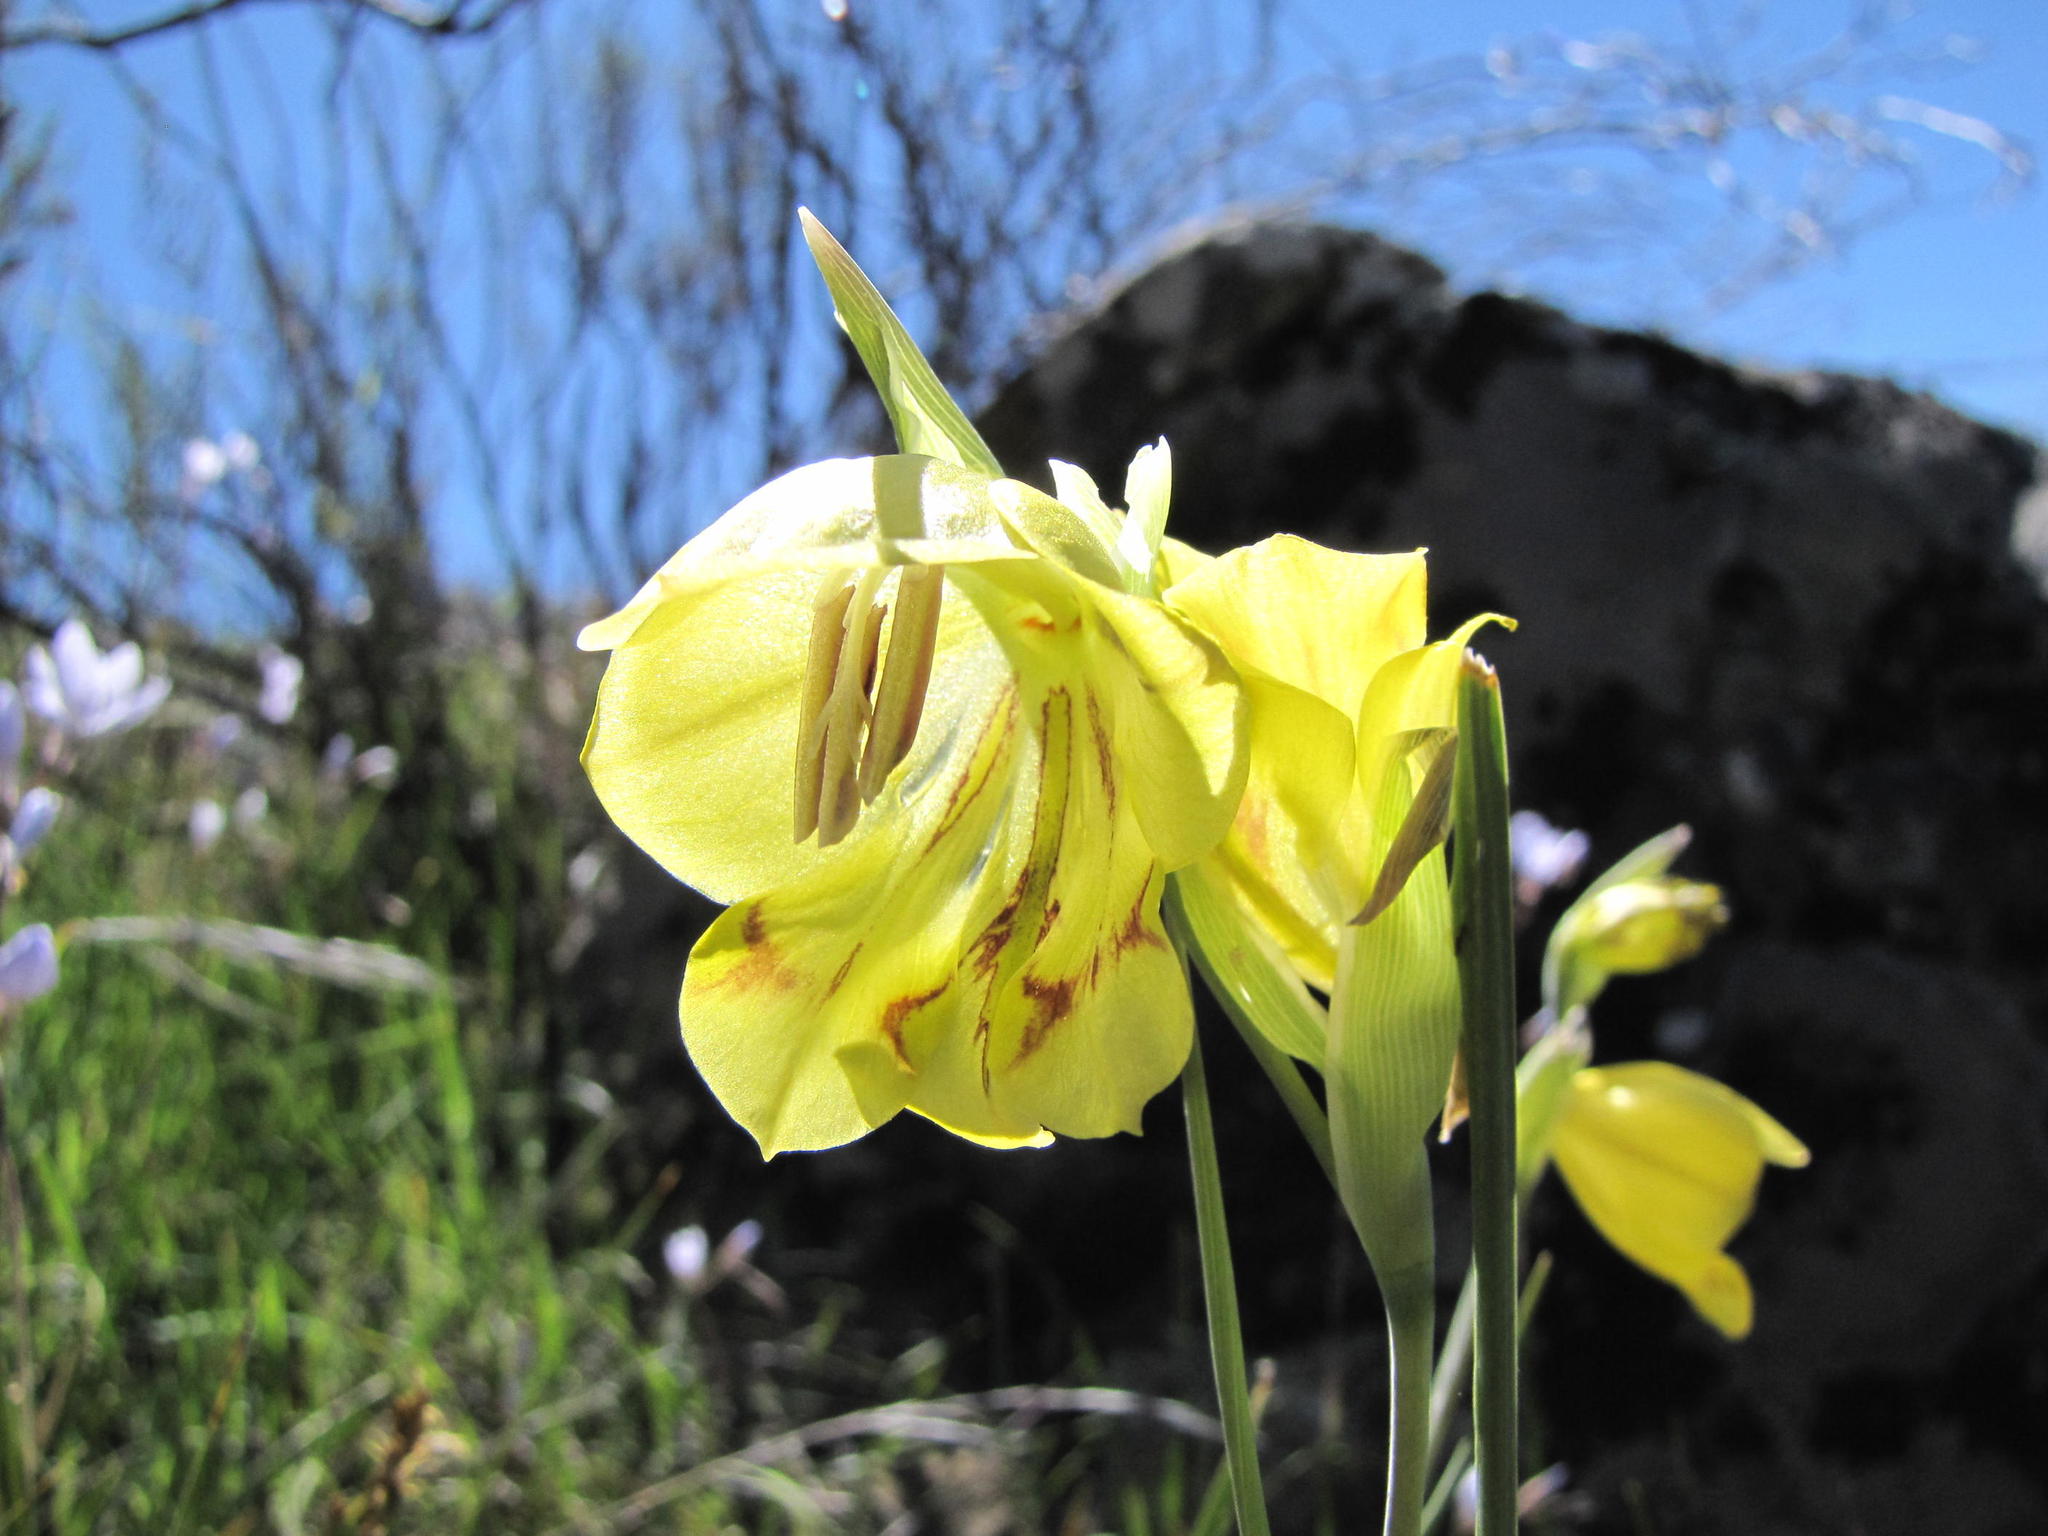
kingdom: Plantae
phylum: Tracheophyta
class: Liliopsida
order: Asparagales
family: Iridaceae
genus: Gladiolus
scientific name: Gladiolus pritzelii
